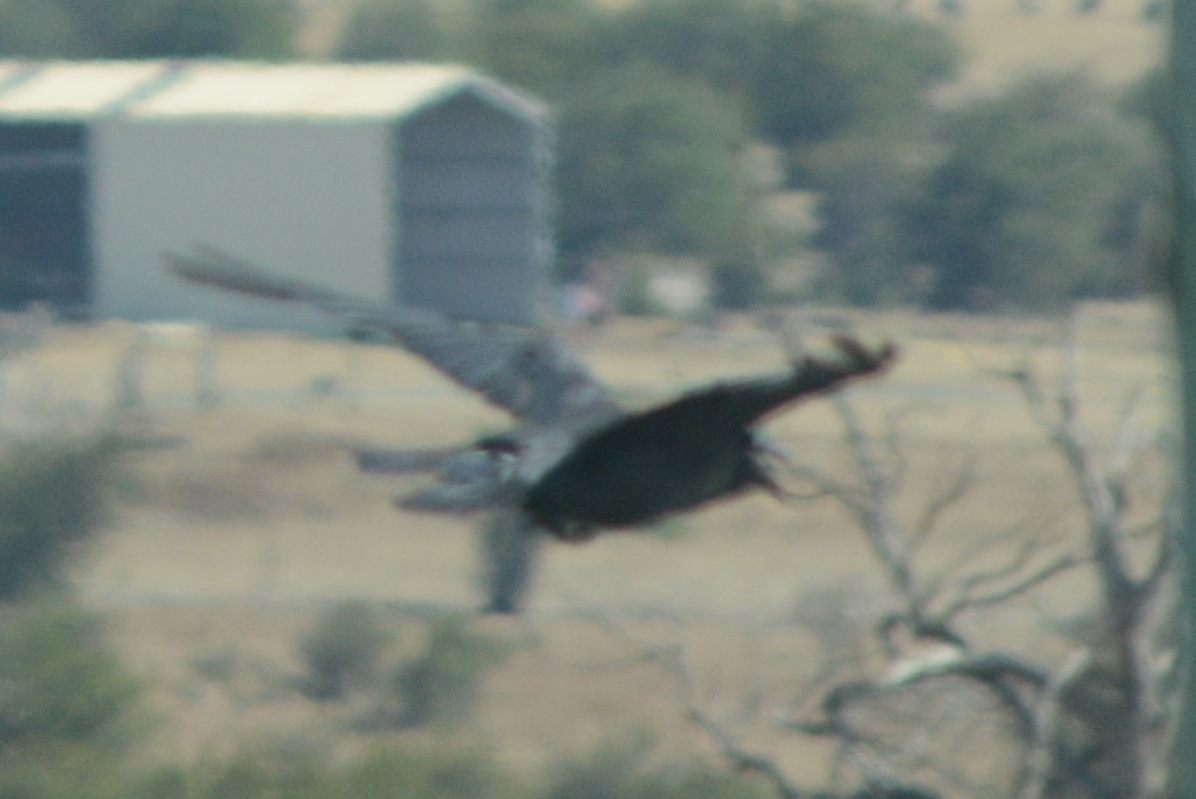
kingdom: Animalia
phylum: Chordata
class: Aves
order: Passeriformes
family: Corvidae
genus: Corvus
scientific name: Corvus tasmanicus
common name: Forest raven
